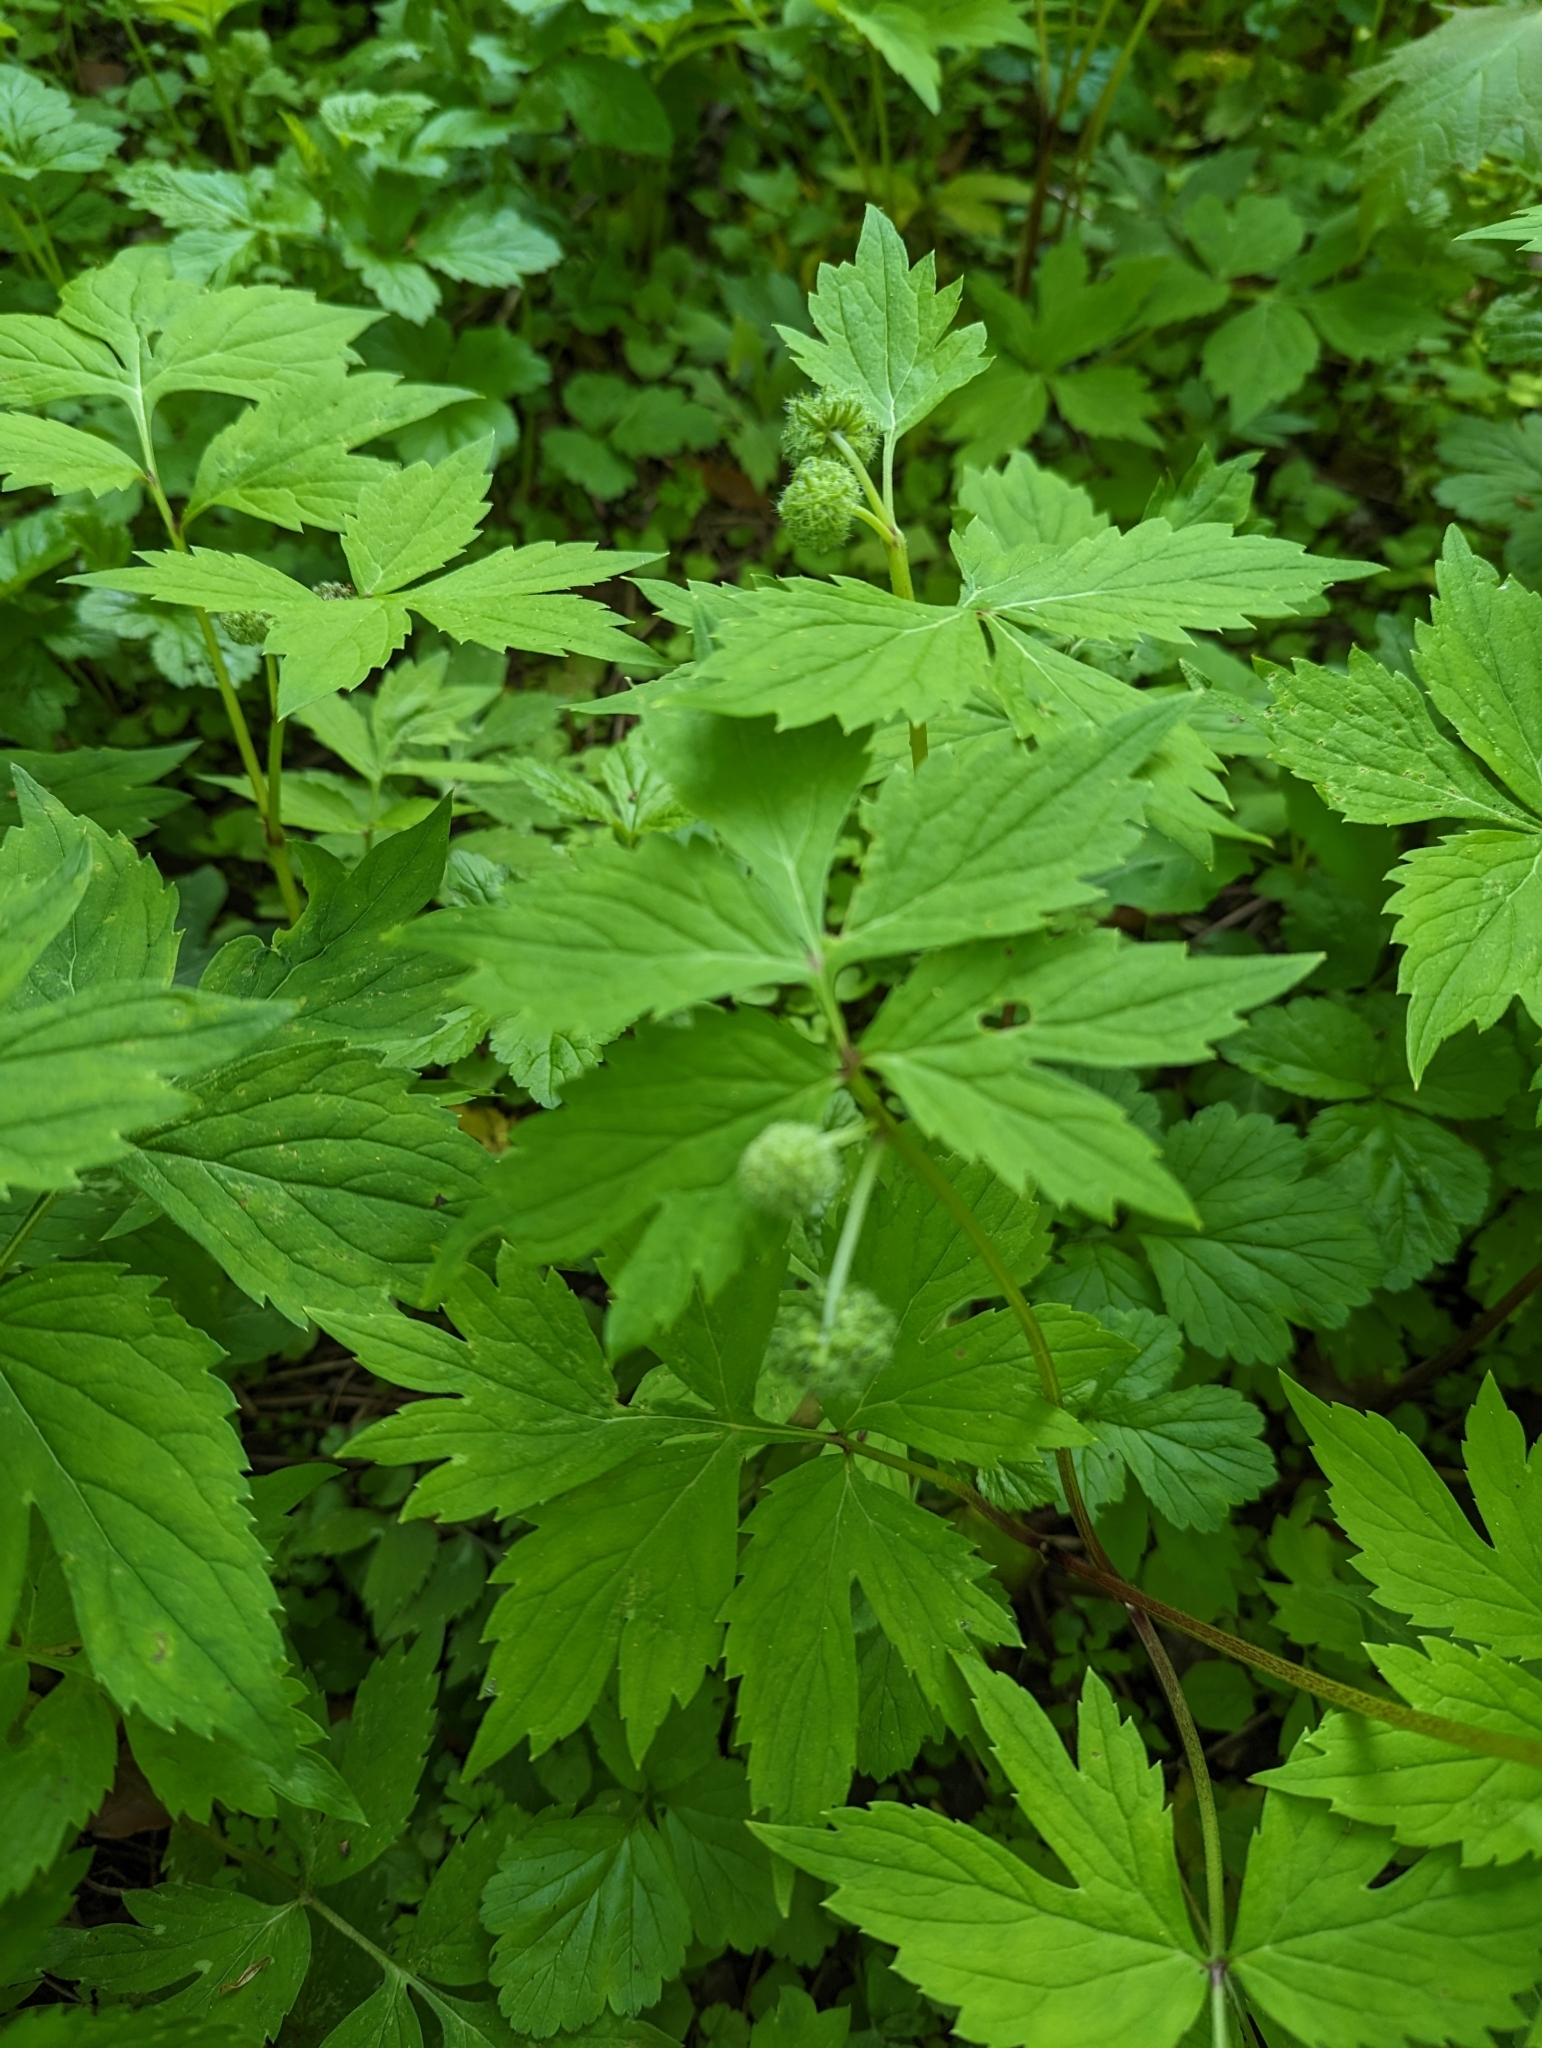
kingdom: Plantae
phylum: Tracheophyta
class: Magnoliopsida
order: Boraginales
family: Hydrophyllaceae
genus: Hydrophyllum
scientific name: Hydrophyllum virginianum
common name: Virginia waterleaf
